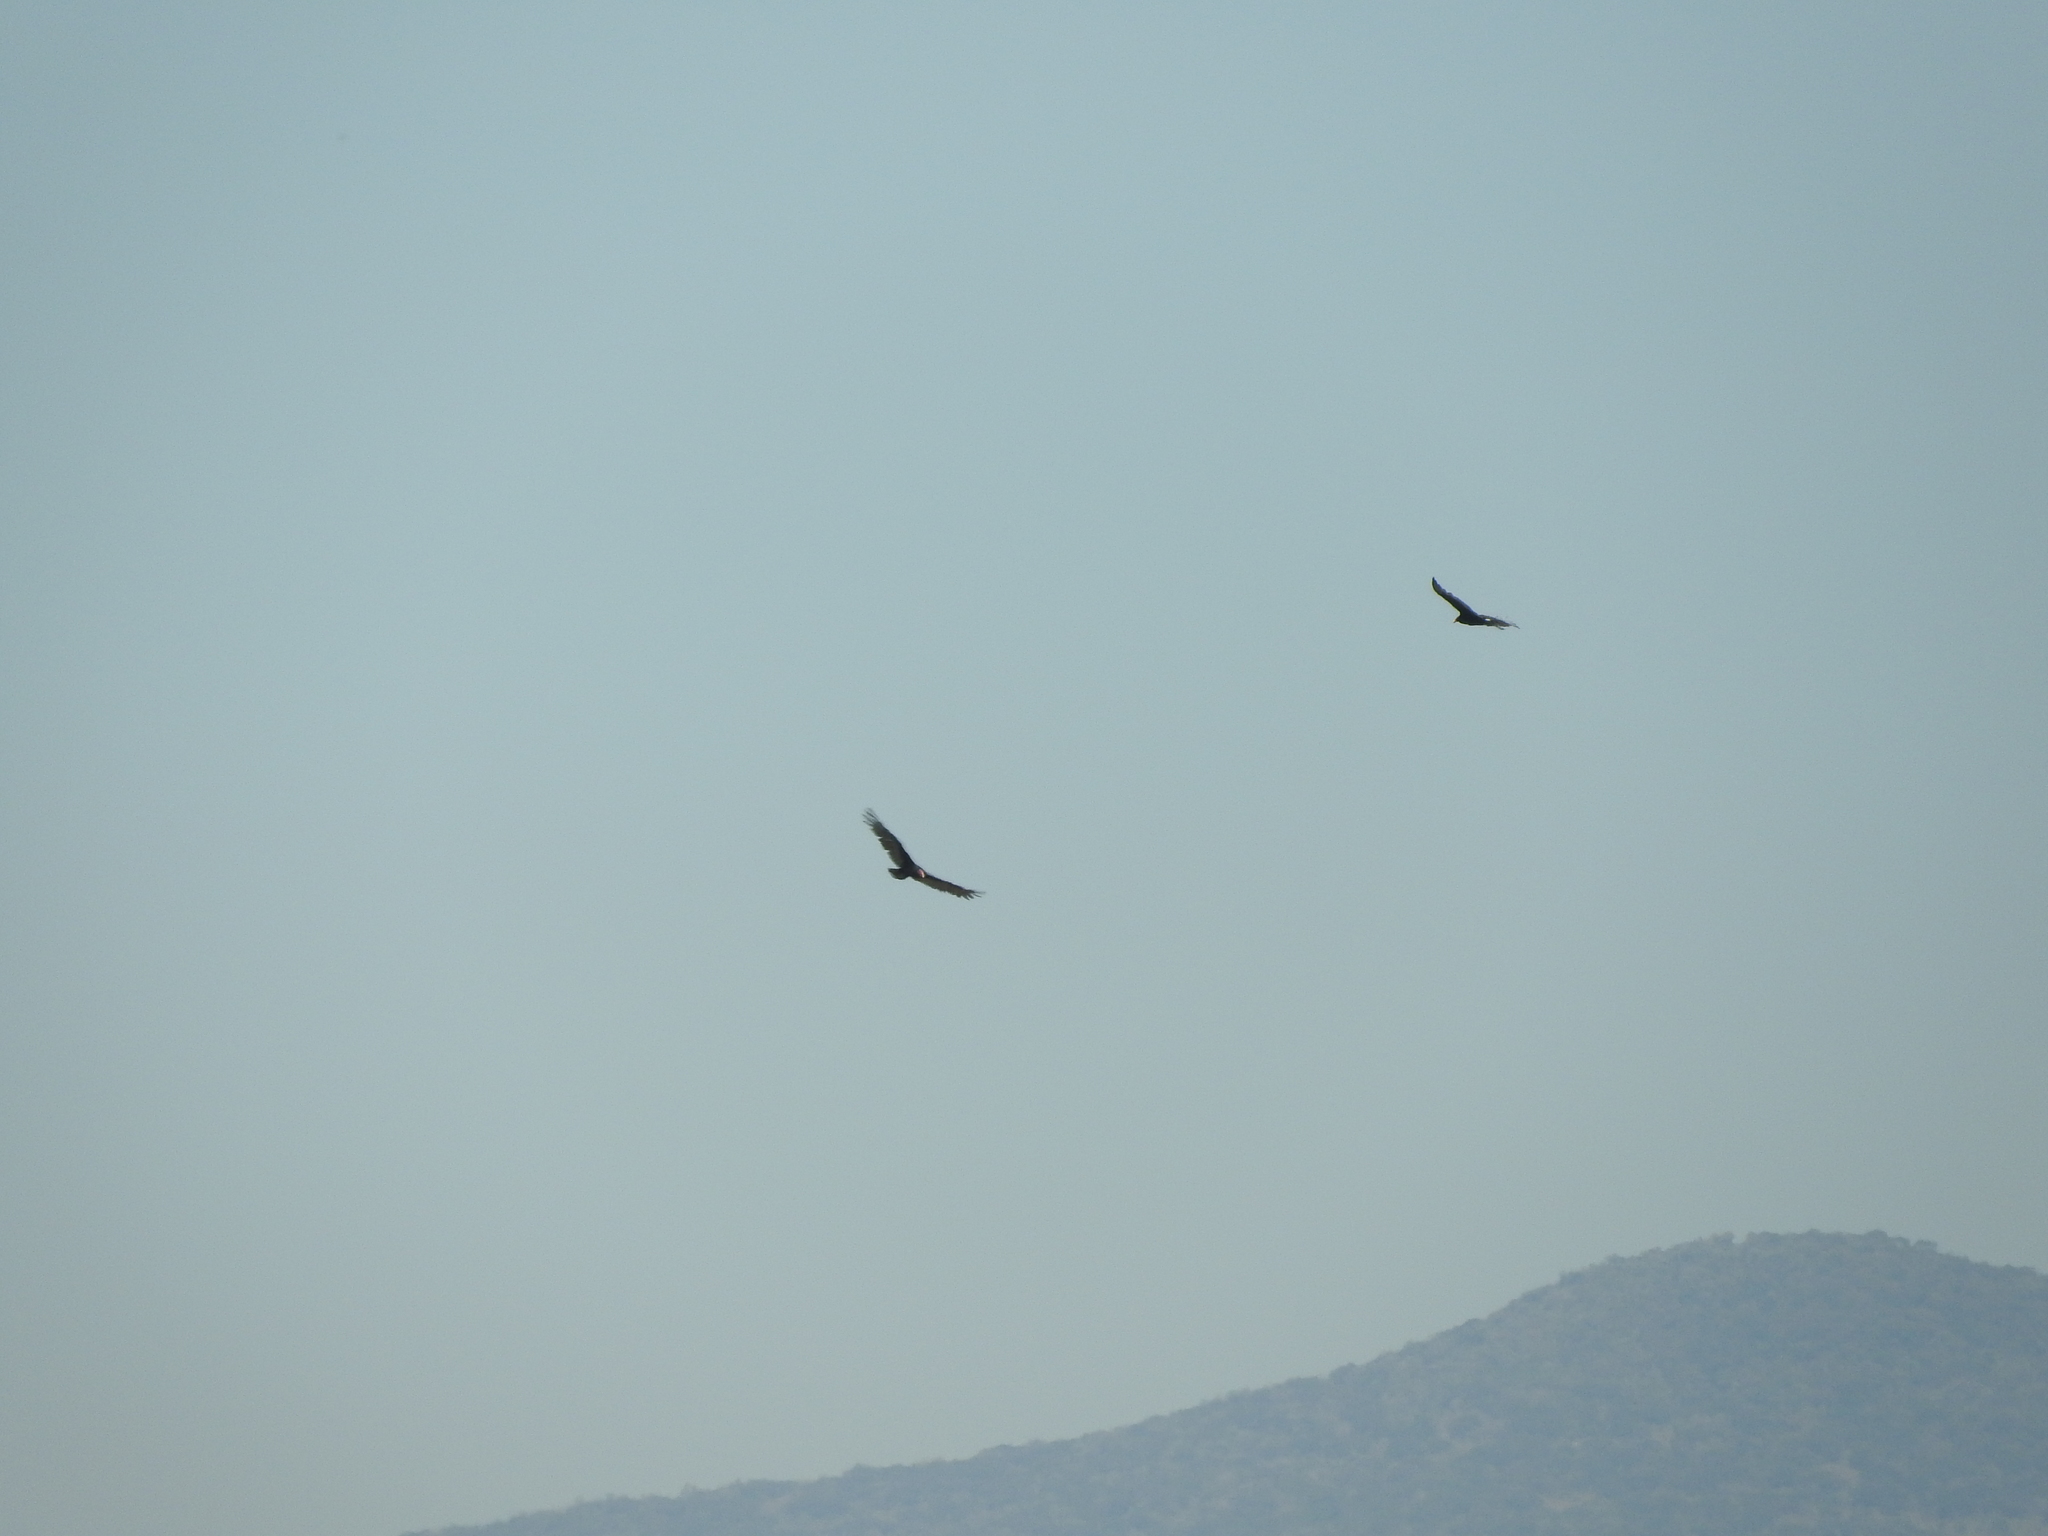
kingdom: Animalia
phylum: Chordata
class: Aves
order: Accipitriformes
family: Cathartidae
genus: Cathartes
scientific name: Cathartes aura
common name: Turkey vulture
